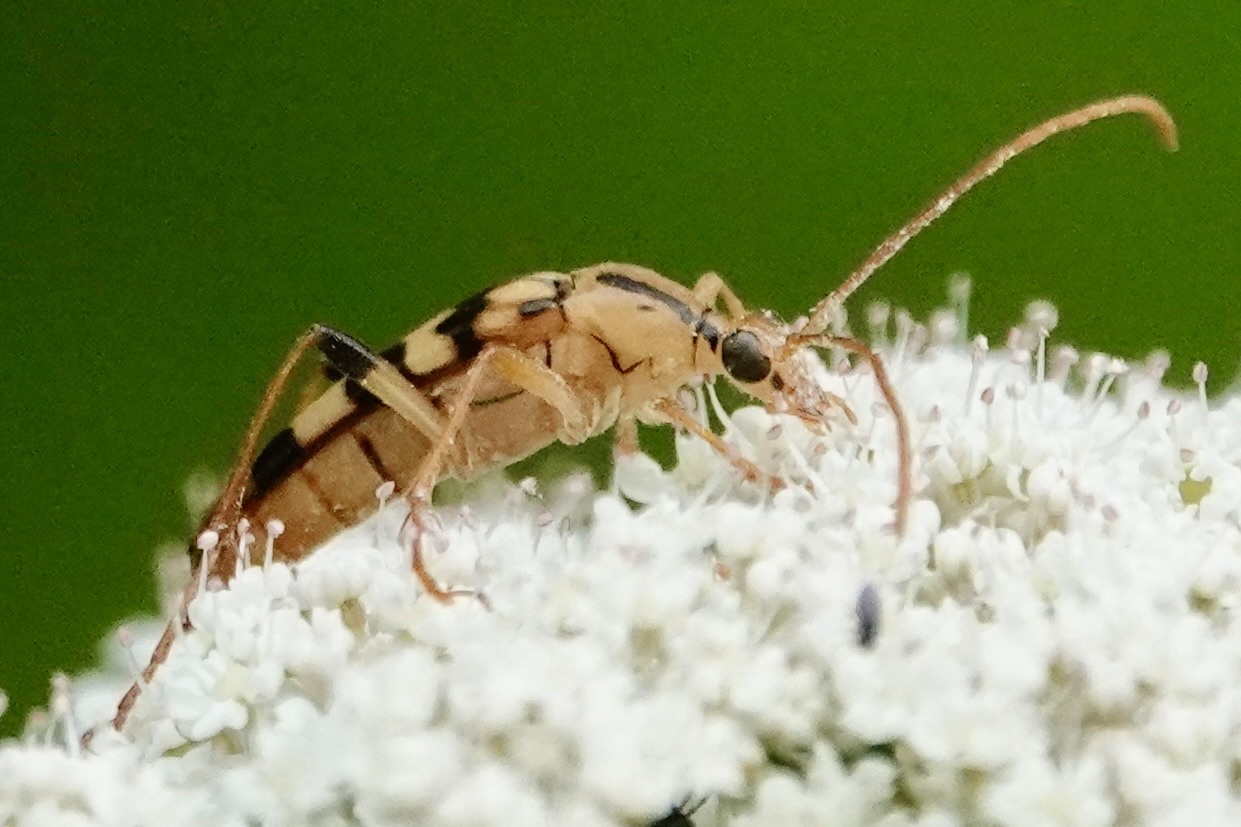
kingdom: Animalia
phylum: Arthropoda
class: Insecta
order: Coleoptera
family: Cerambycidae
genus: Strangalia
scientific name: Strangalia luteicornis
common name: Yellow-horned flower longhorn beetle
